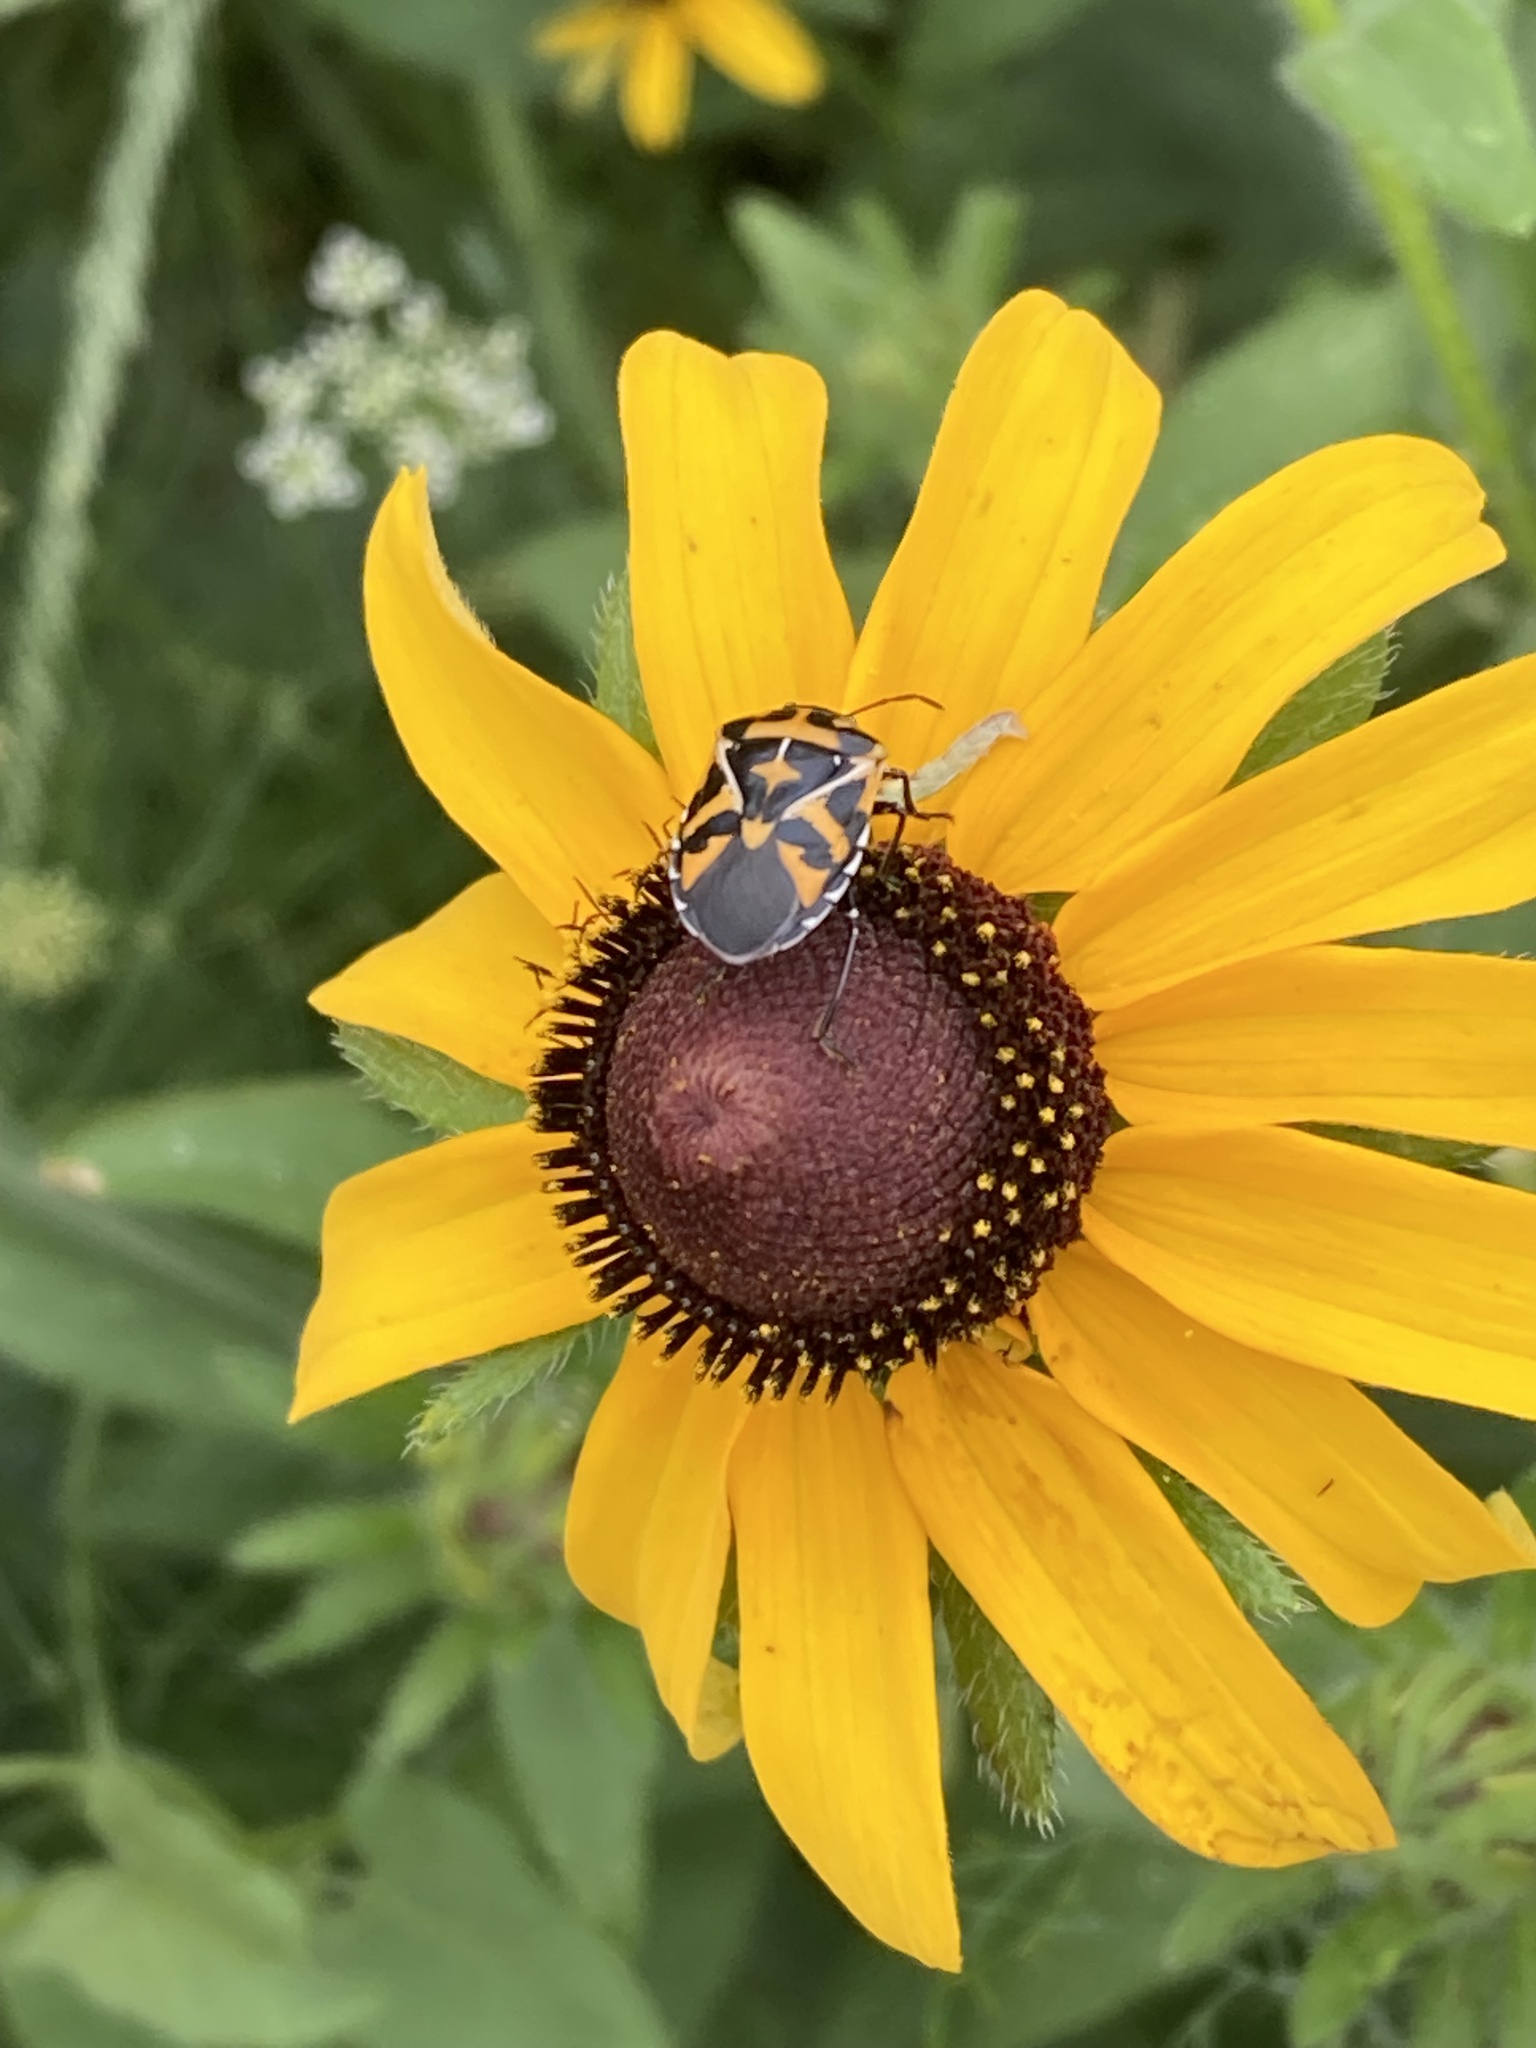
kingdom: Animalia
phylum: Arthropoda
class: Insecta
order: Hemiptera
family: Pentatomidae
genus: Murgantia
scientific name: Murgantia histrionica
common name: Harlequin bug
